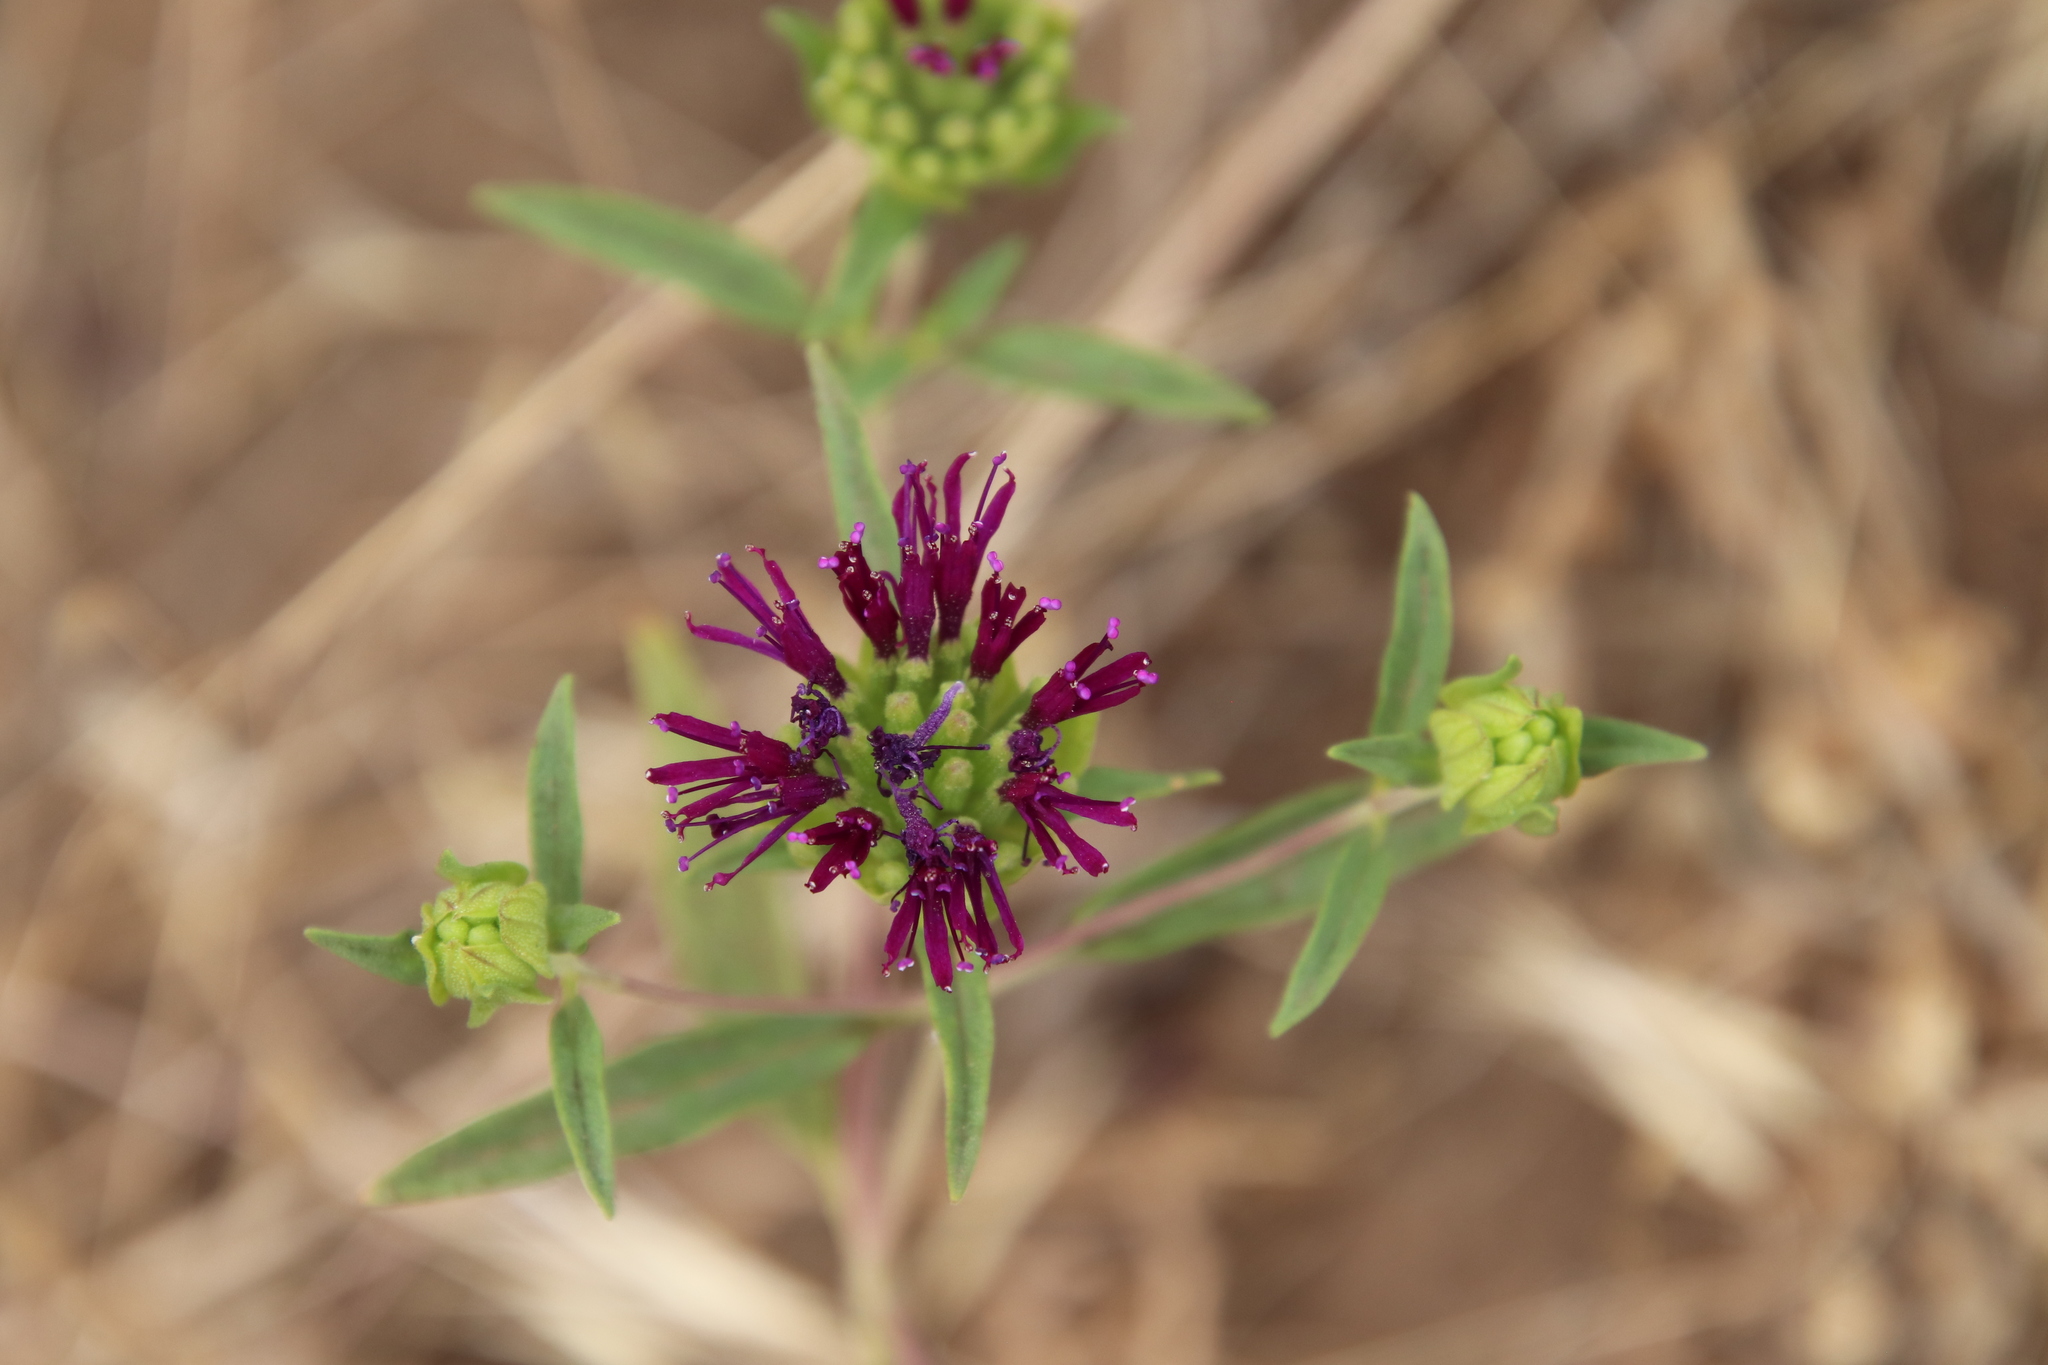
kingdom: Plantae
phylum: Tracheophyta
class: Magnoliopsida
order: Lamiales
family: Lamiaceae
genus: Monardella
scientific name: Monardella breweri
